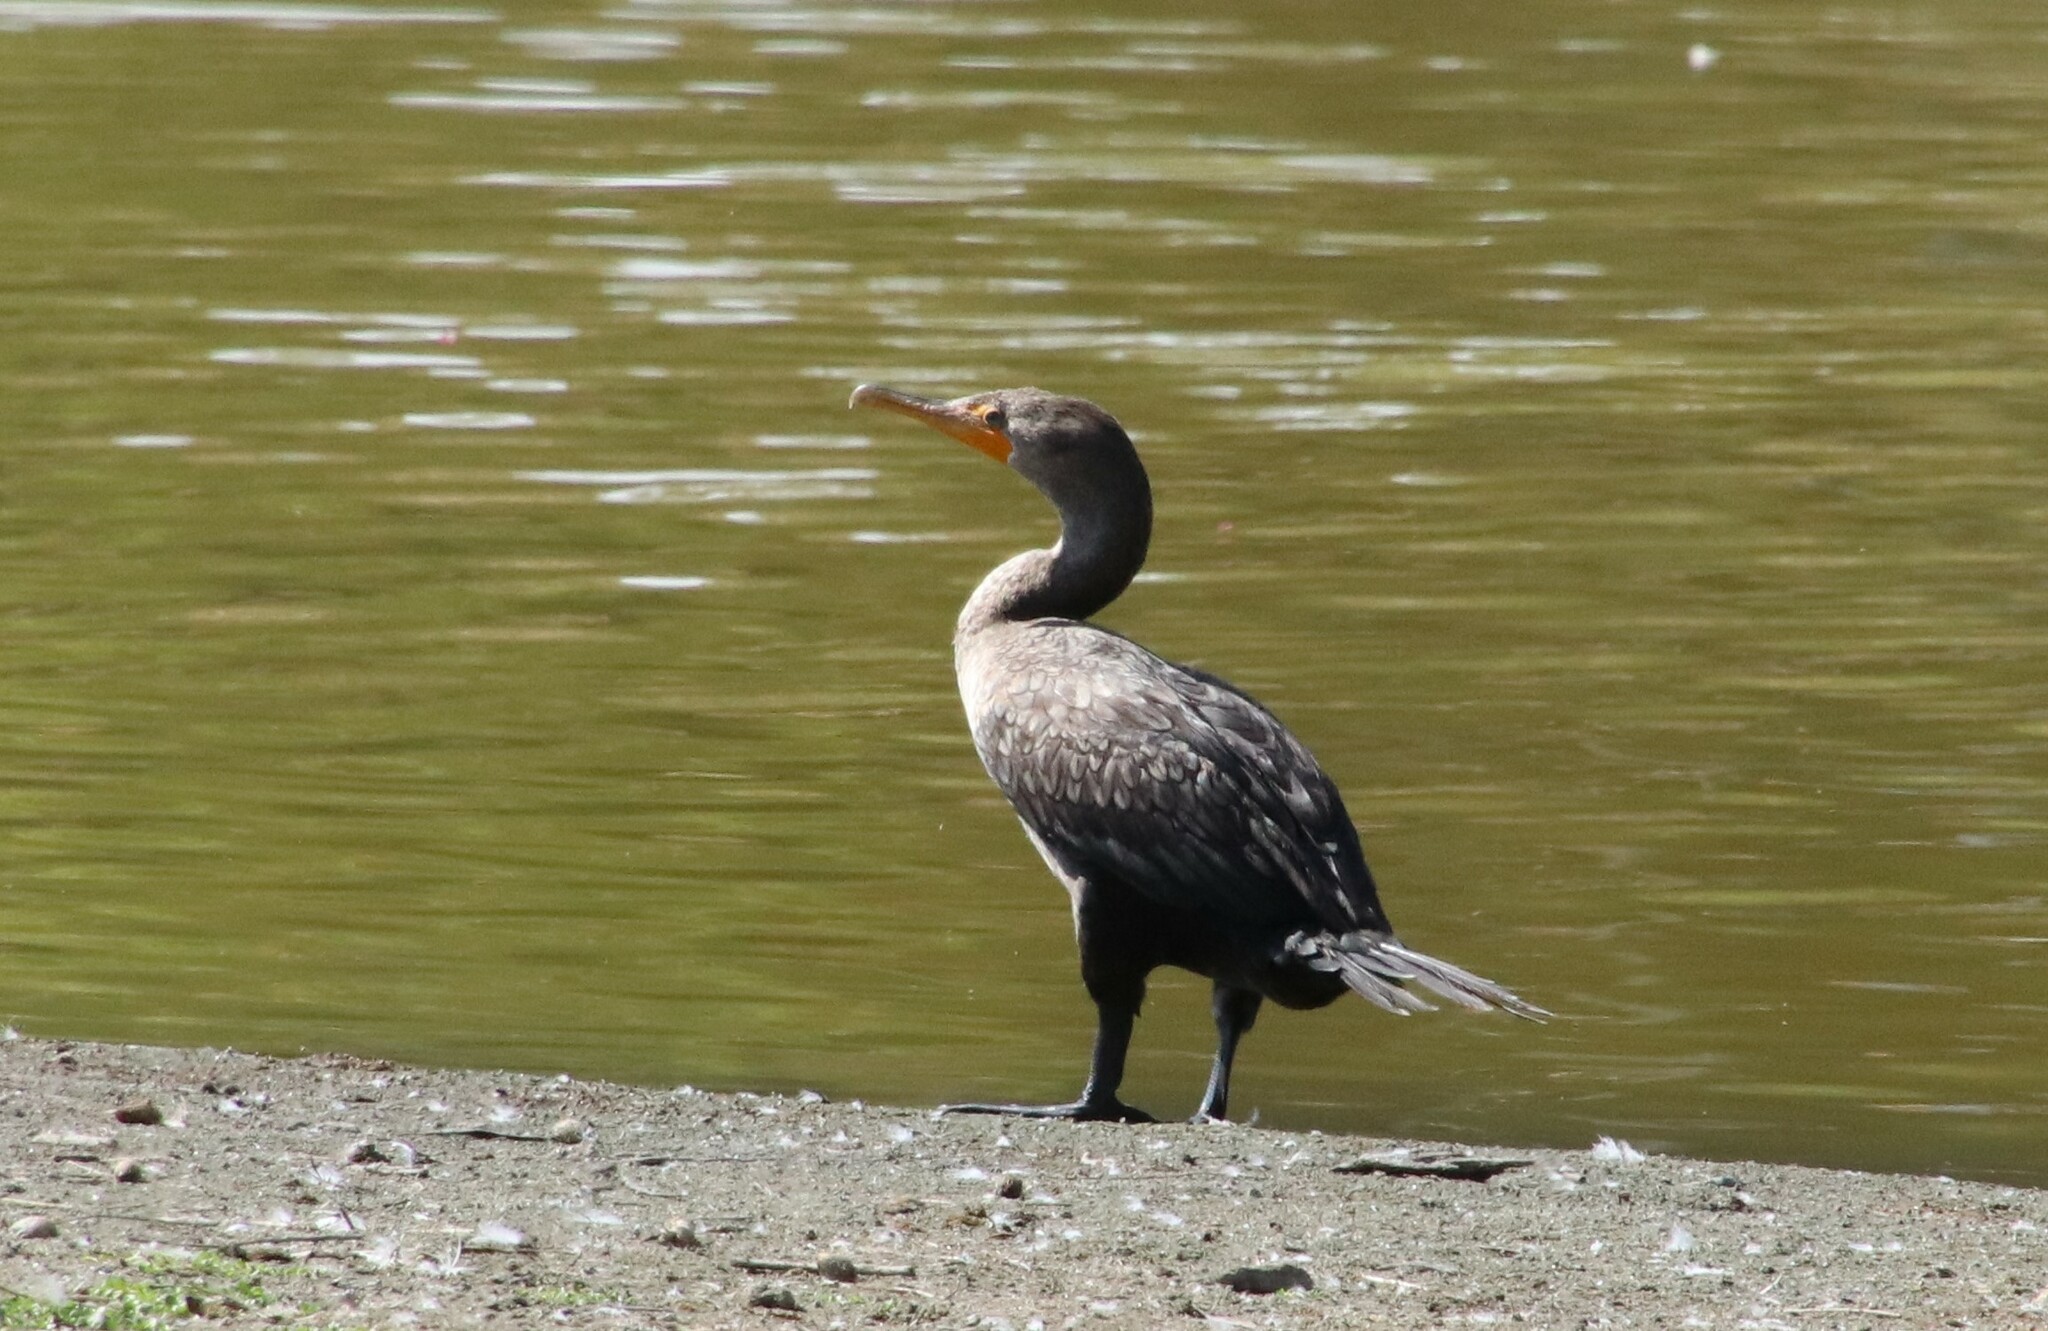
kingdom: Animalia
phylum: Chordata
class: Aves
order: Suliformes
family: Phalacrocoracidae
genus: Phalacrocorax
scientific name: Phalacrocorax auritus
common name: Double-crested cormorant
